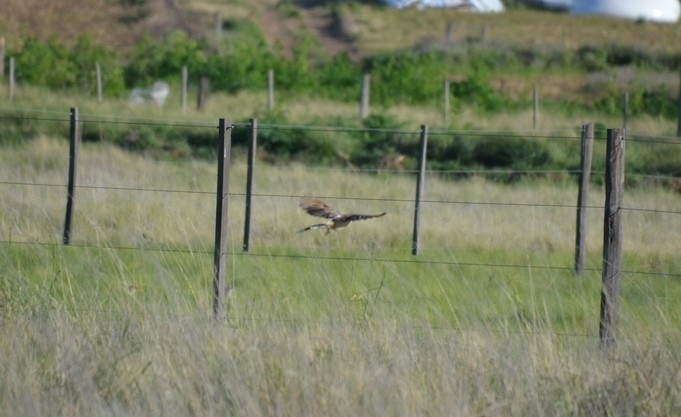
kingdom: Animalia
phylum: Chordata
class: Aves
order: Cuculiformes
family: Cuculidae
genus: Guira
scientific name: Guira guira
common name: Guira cuckoo
